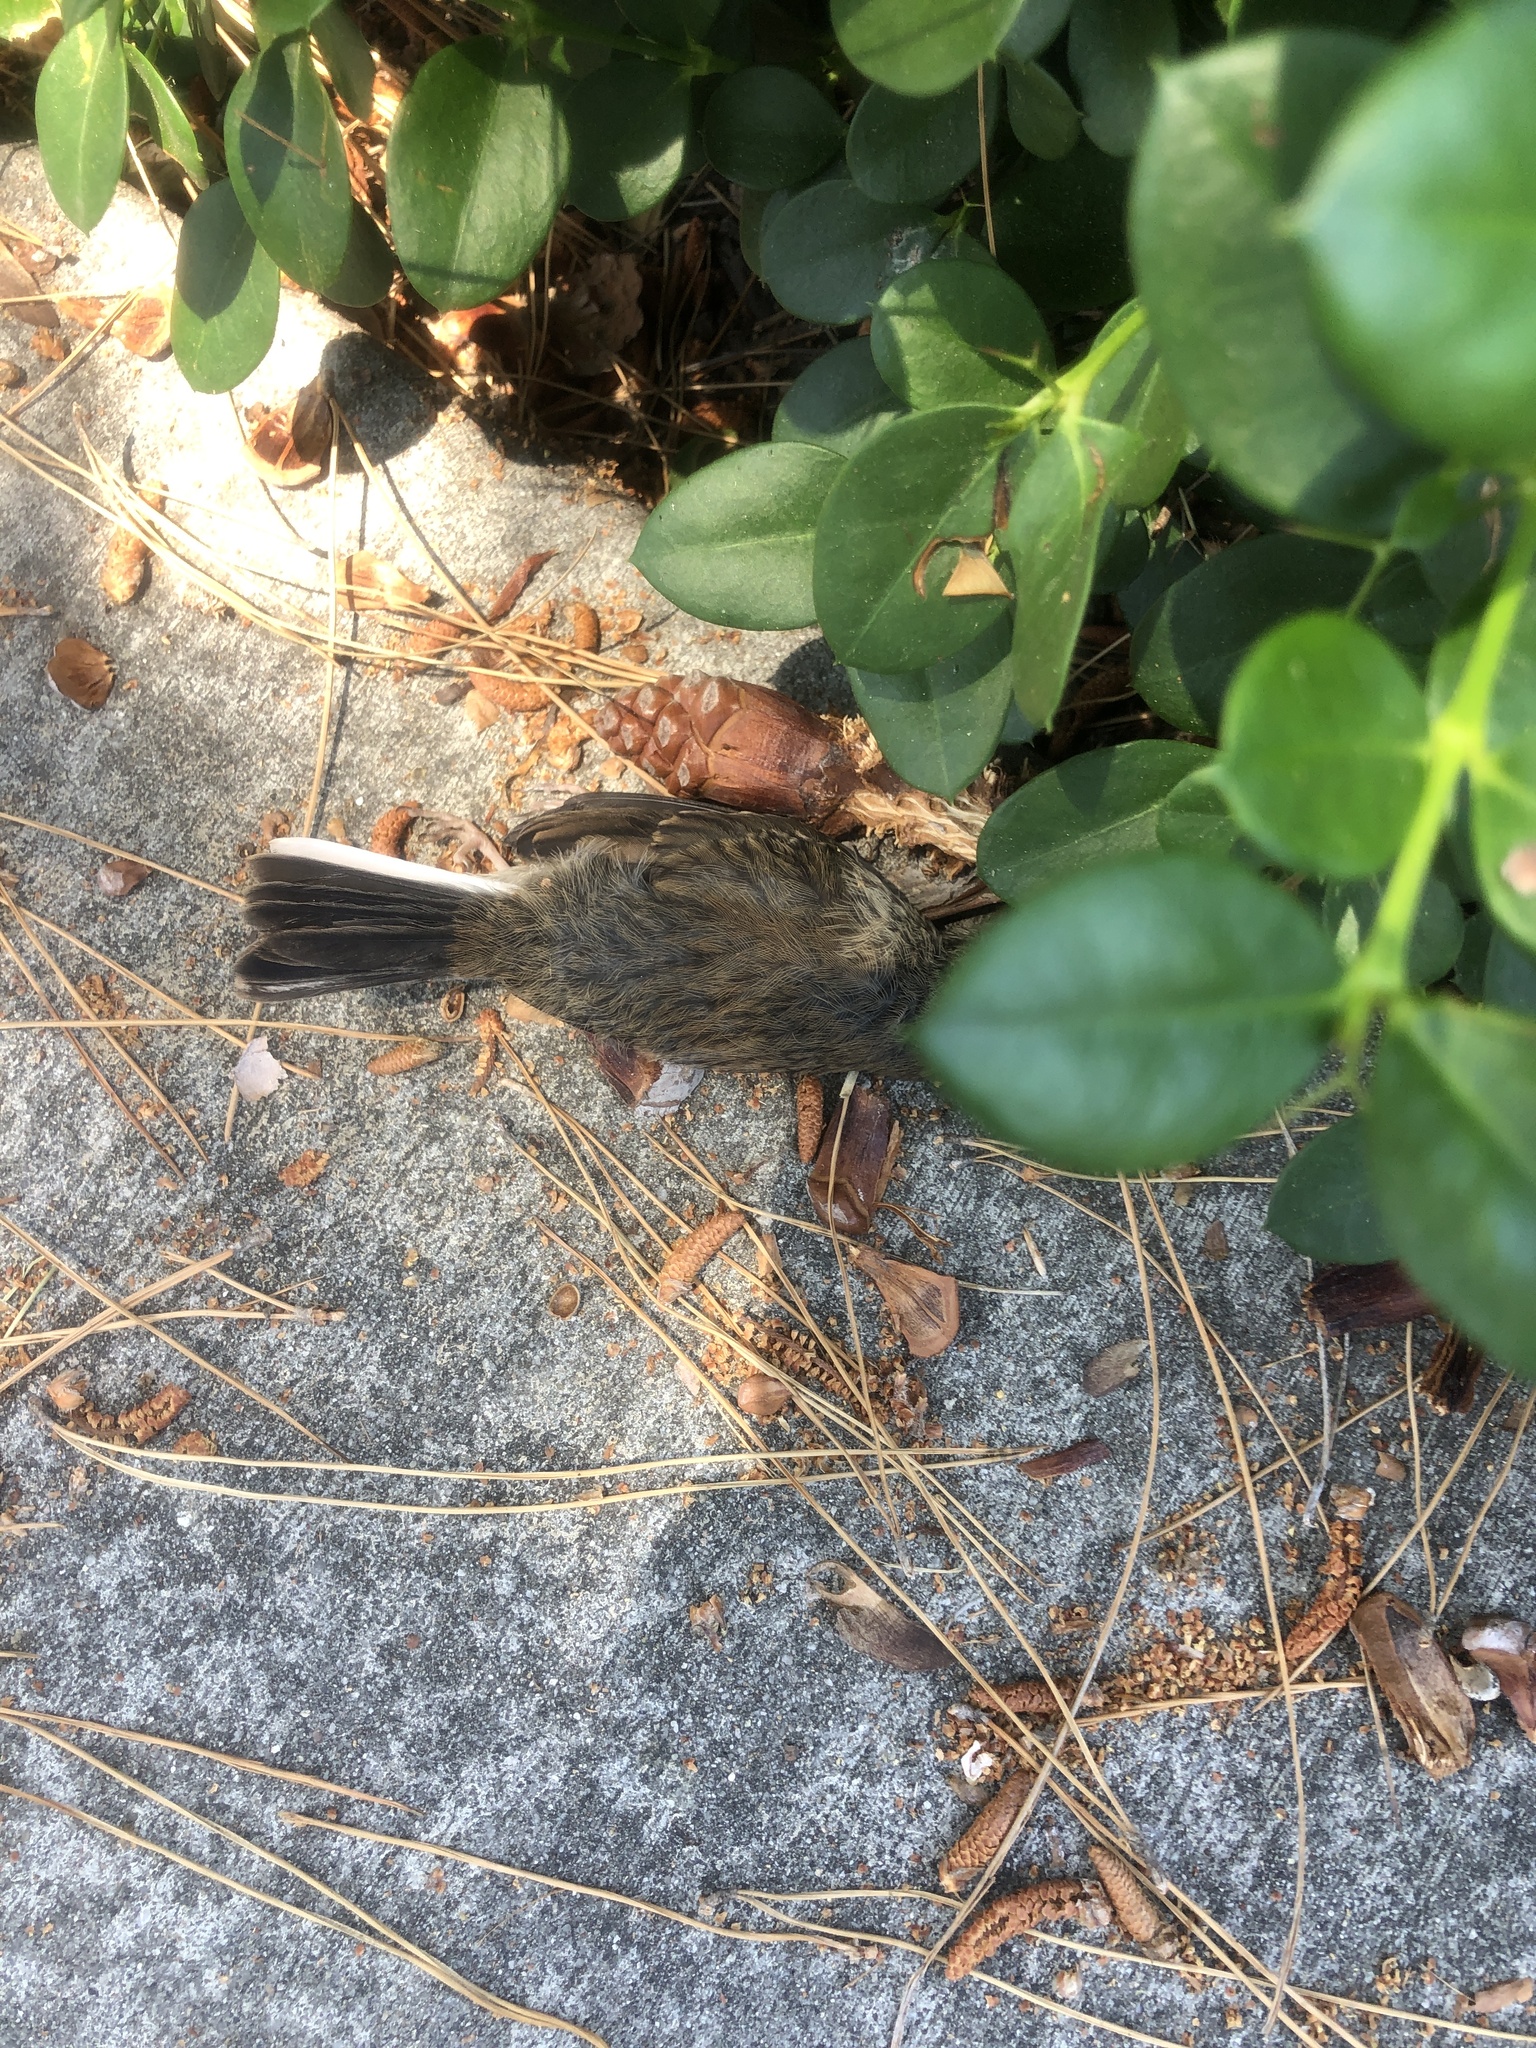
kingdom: Animalia
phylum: Chordata
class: Aves
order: Passeriformes
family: Passerellidae
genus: Junco
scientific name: Junco hyemalis
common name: Dark-eyed junco
